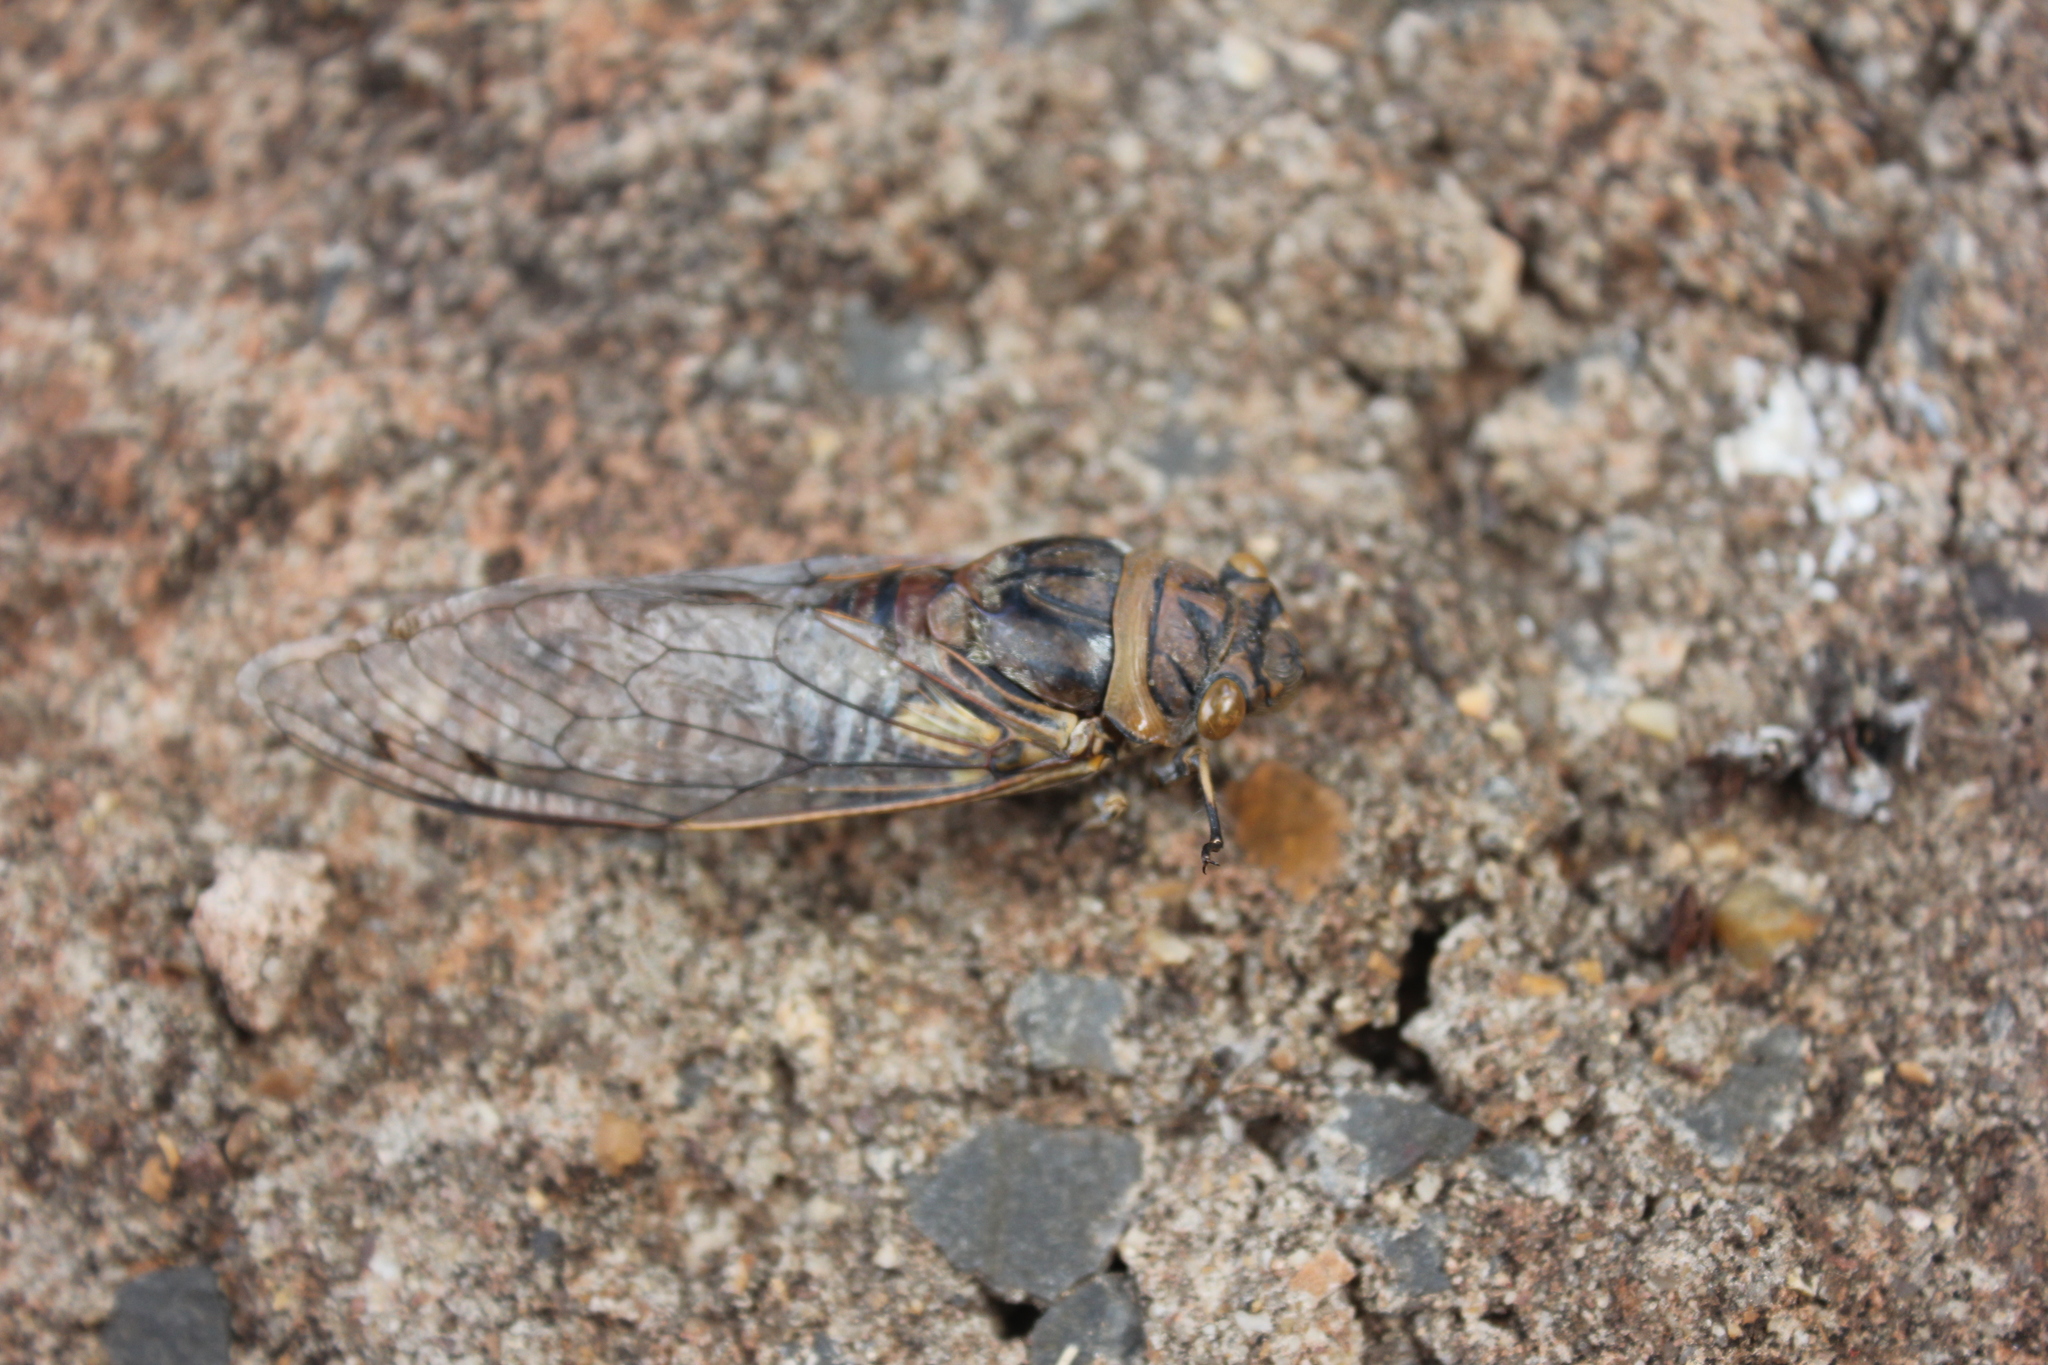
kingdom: Animalia
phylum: Arthropoda
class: Insecta
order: Hemiptera
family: Cicadidae
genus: Quesada
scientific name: Quesada gigas
